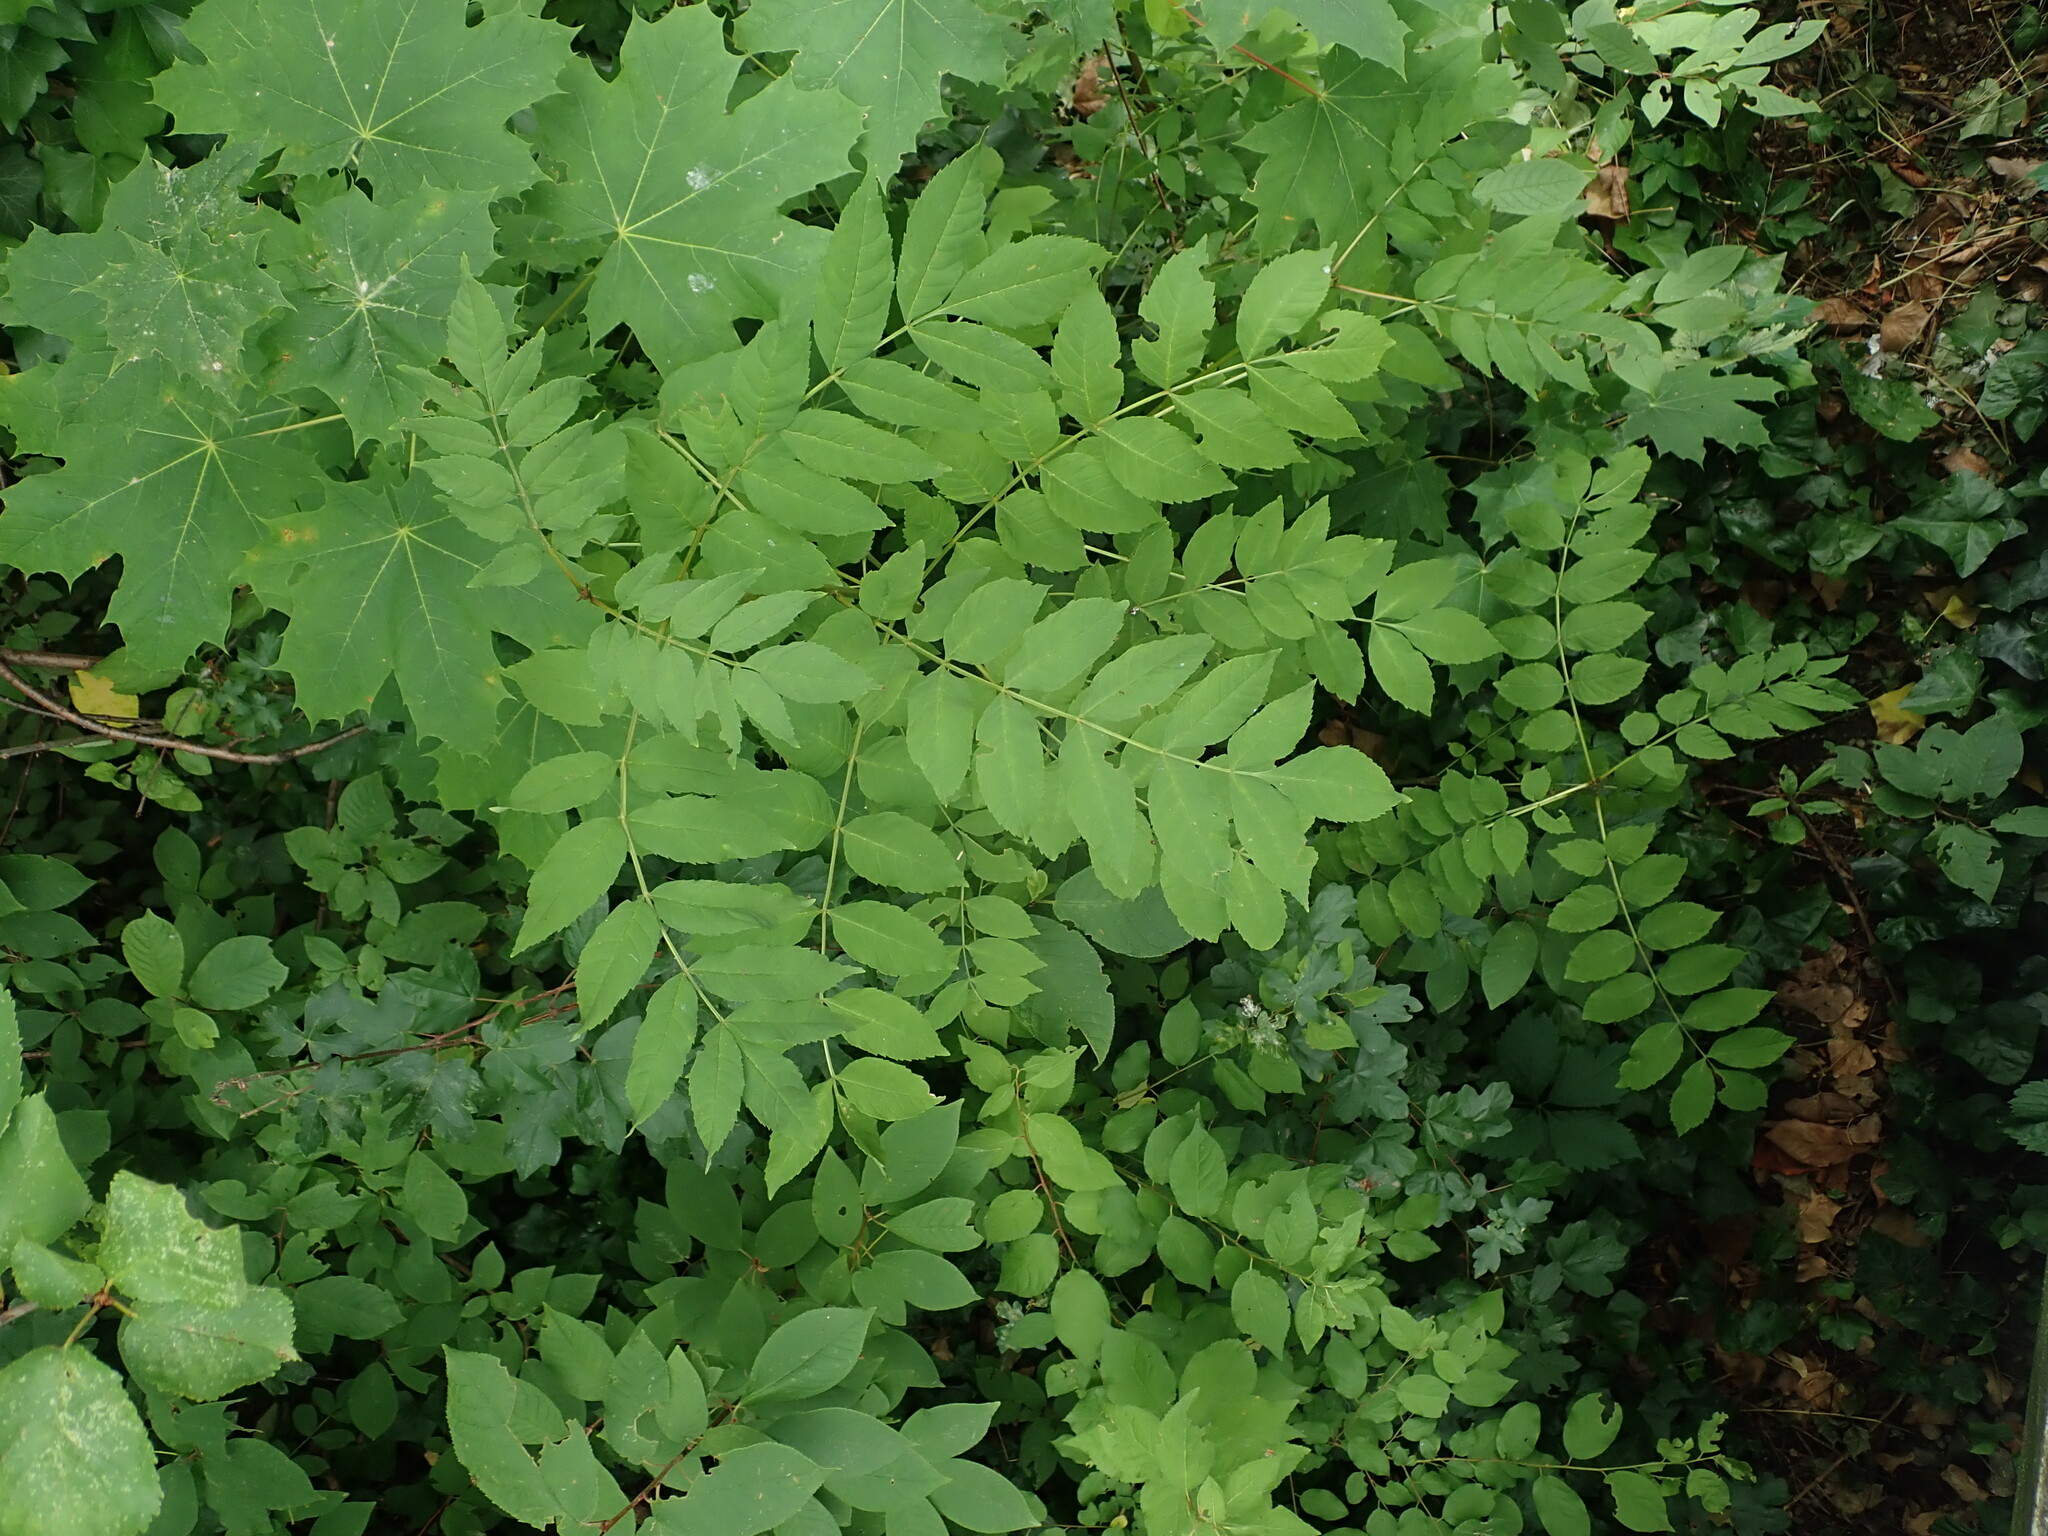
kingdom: Plantae
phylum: Tracheophyta
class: Magnoliopsida
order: Lamiales
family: Oleaceae
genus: Fraxinus
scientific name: Fraxinus excelsior
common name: European ash
